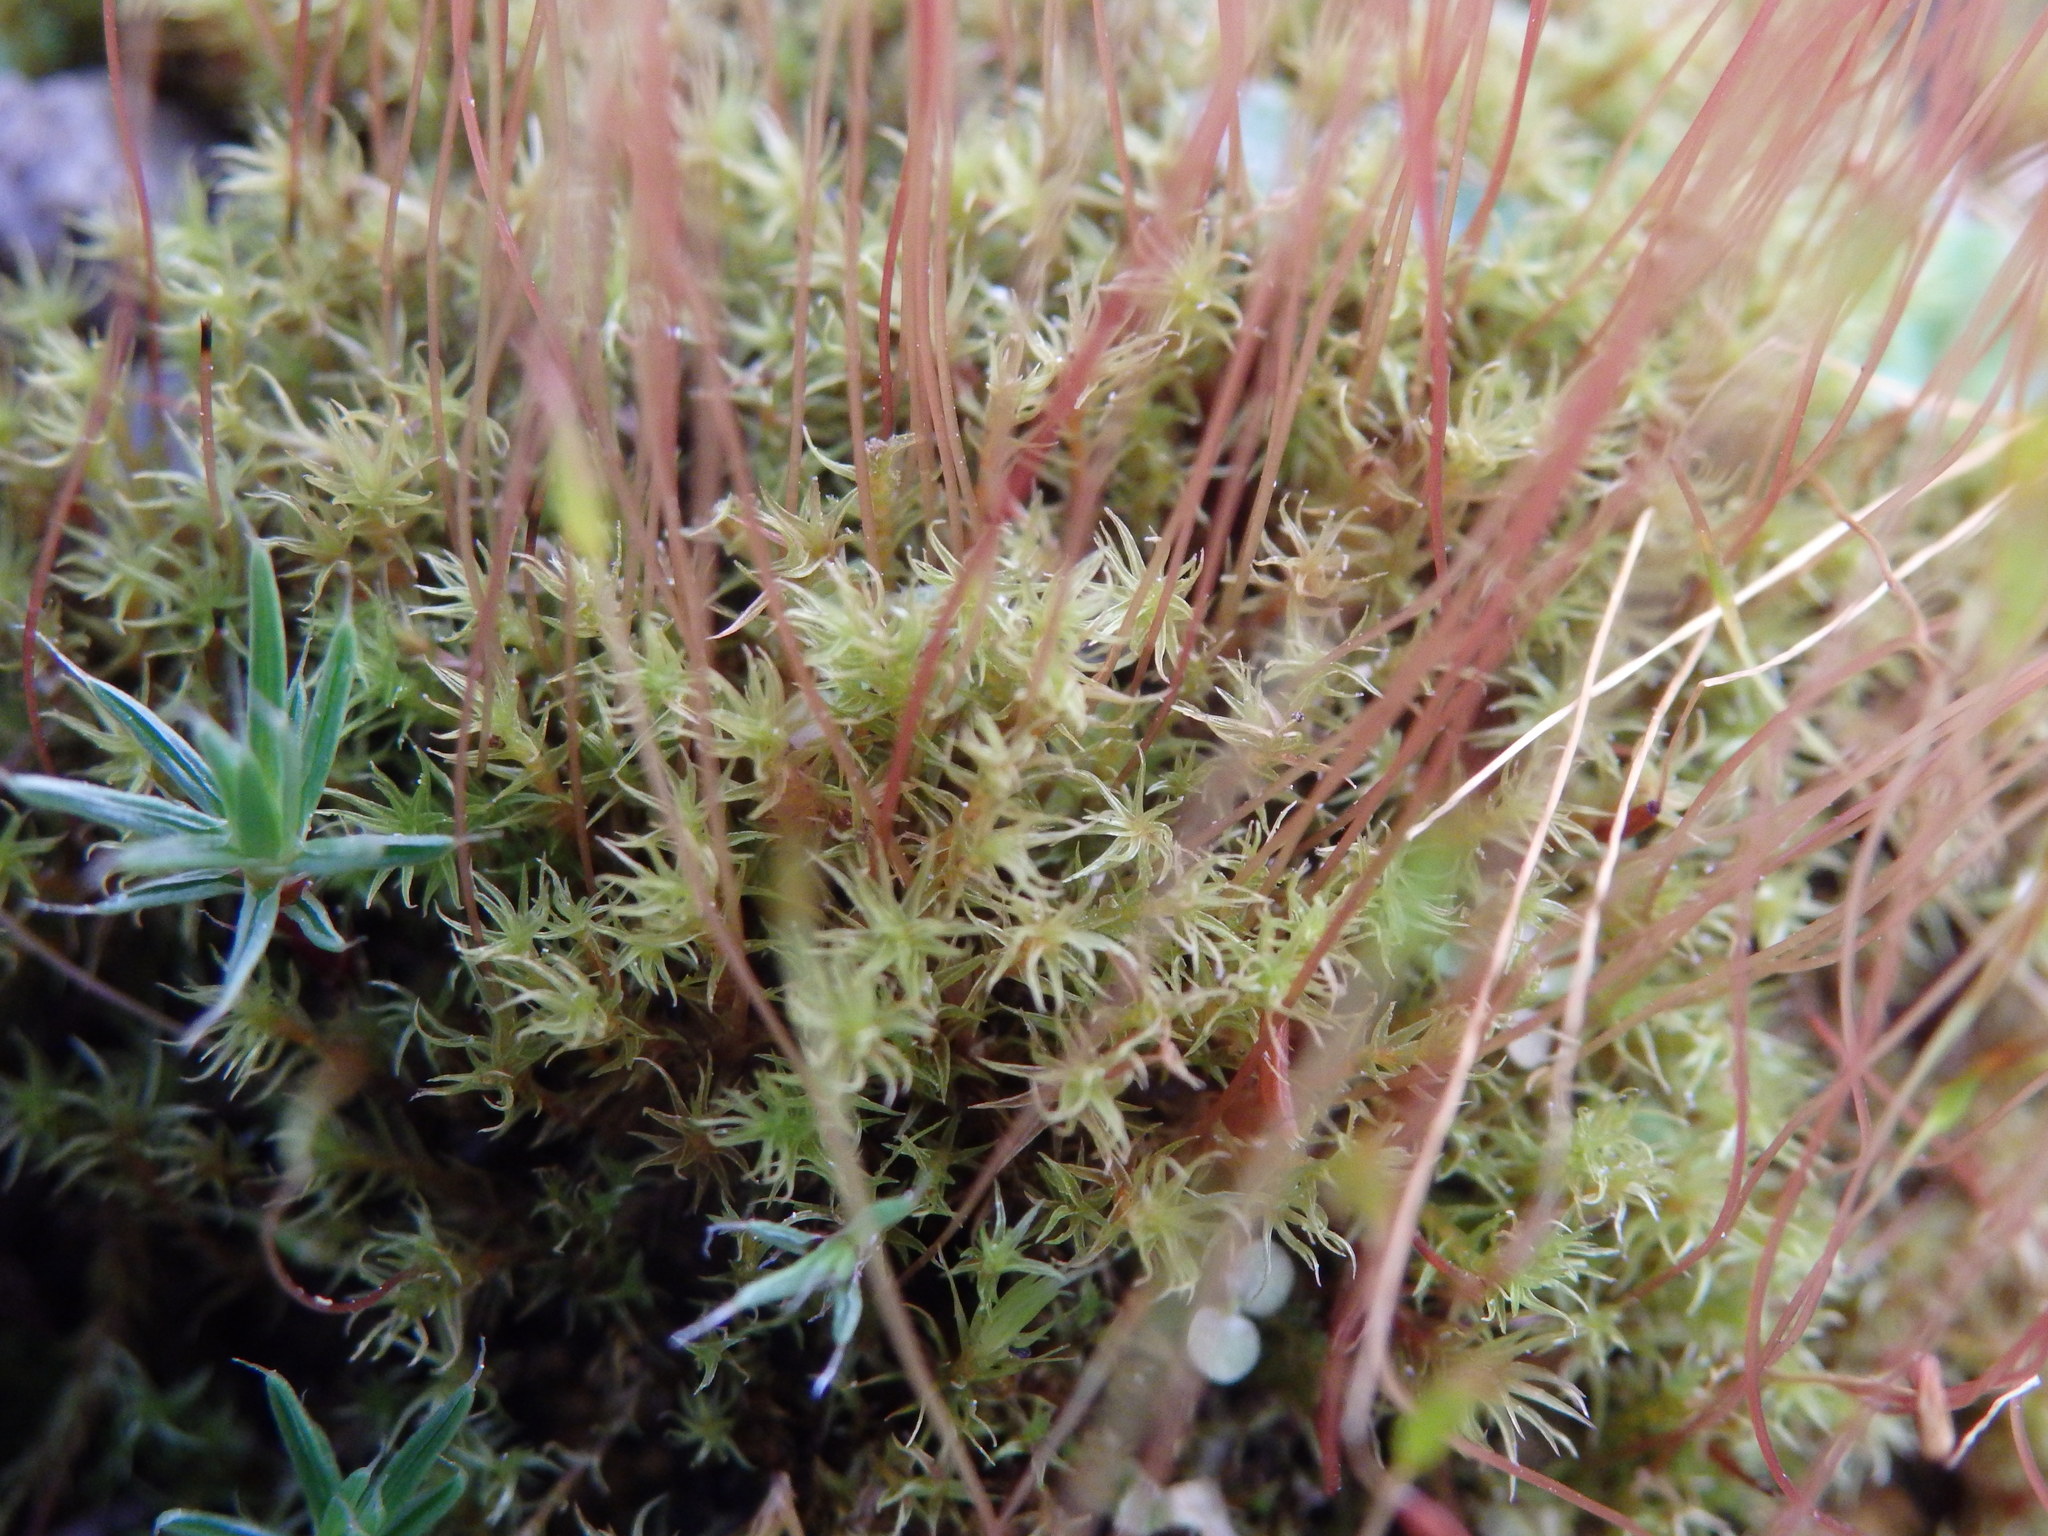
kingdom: Plantae
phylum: Bryophyta
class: Bryopsida
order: Dicranales
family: Ditrichaceae
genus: Ceratodon
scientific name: Ceratodon purpureus
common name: Redshank
